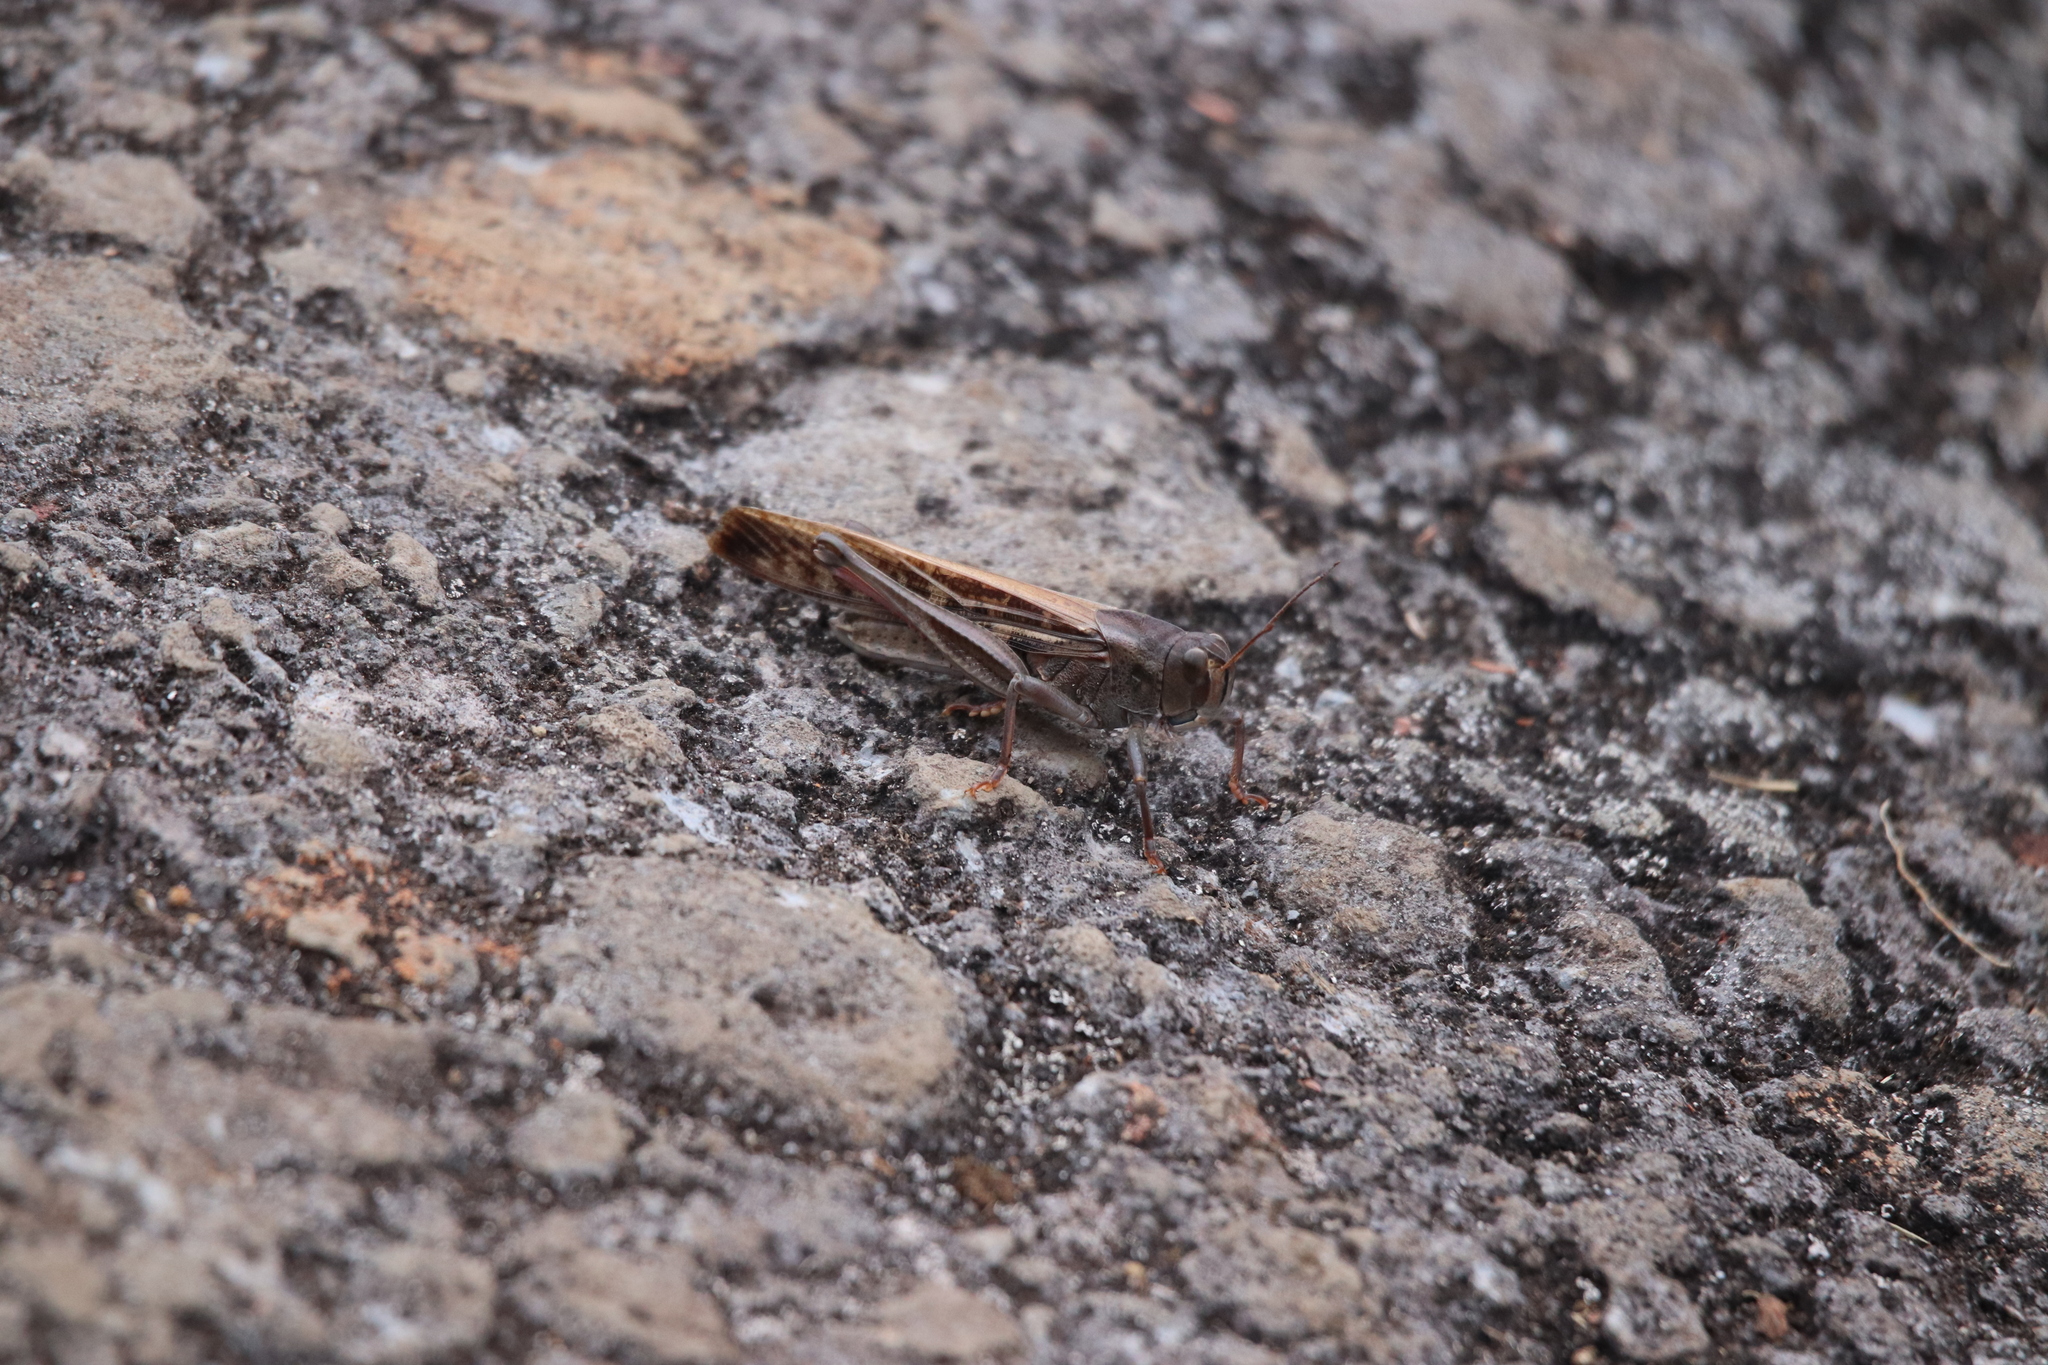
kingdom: Animalia
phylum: Arthropoda
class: Insecta
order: Orthoptera
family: Acrididae
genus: Locusta
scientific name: Locusta migratoria
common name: Migratory locust
